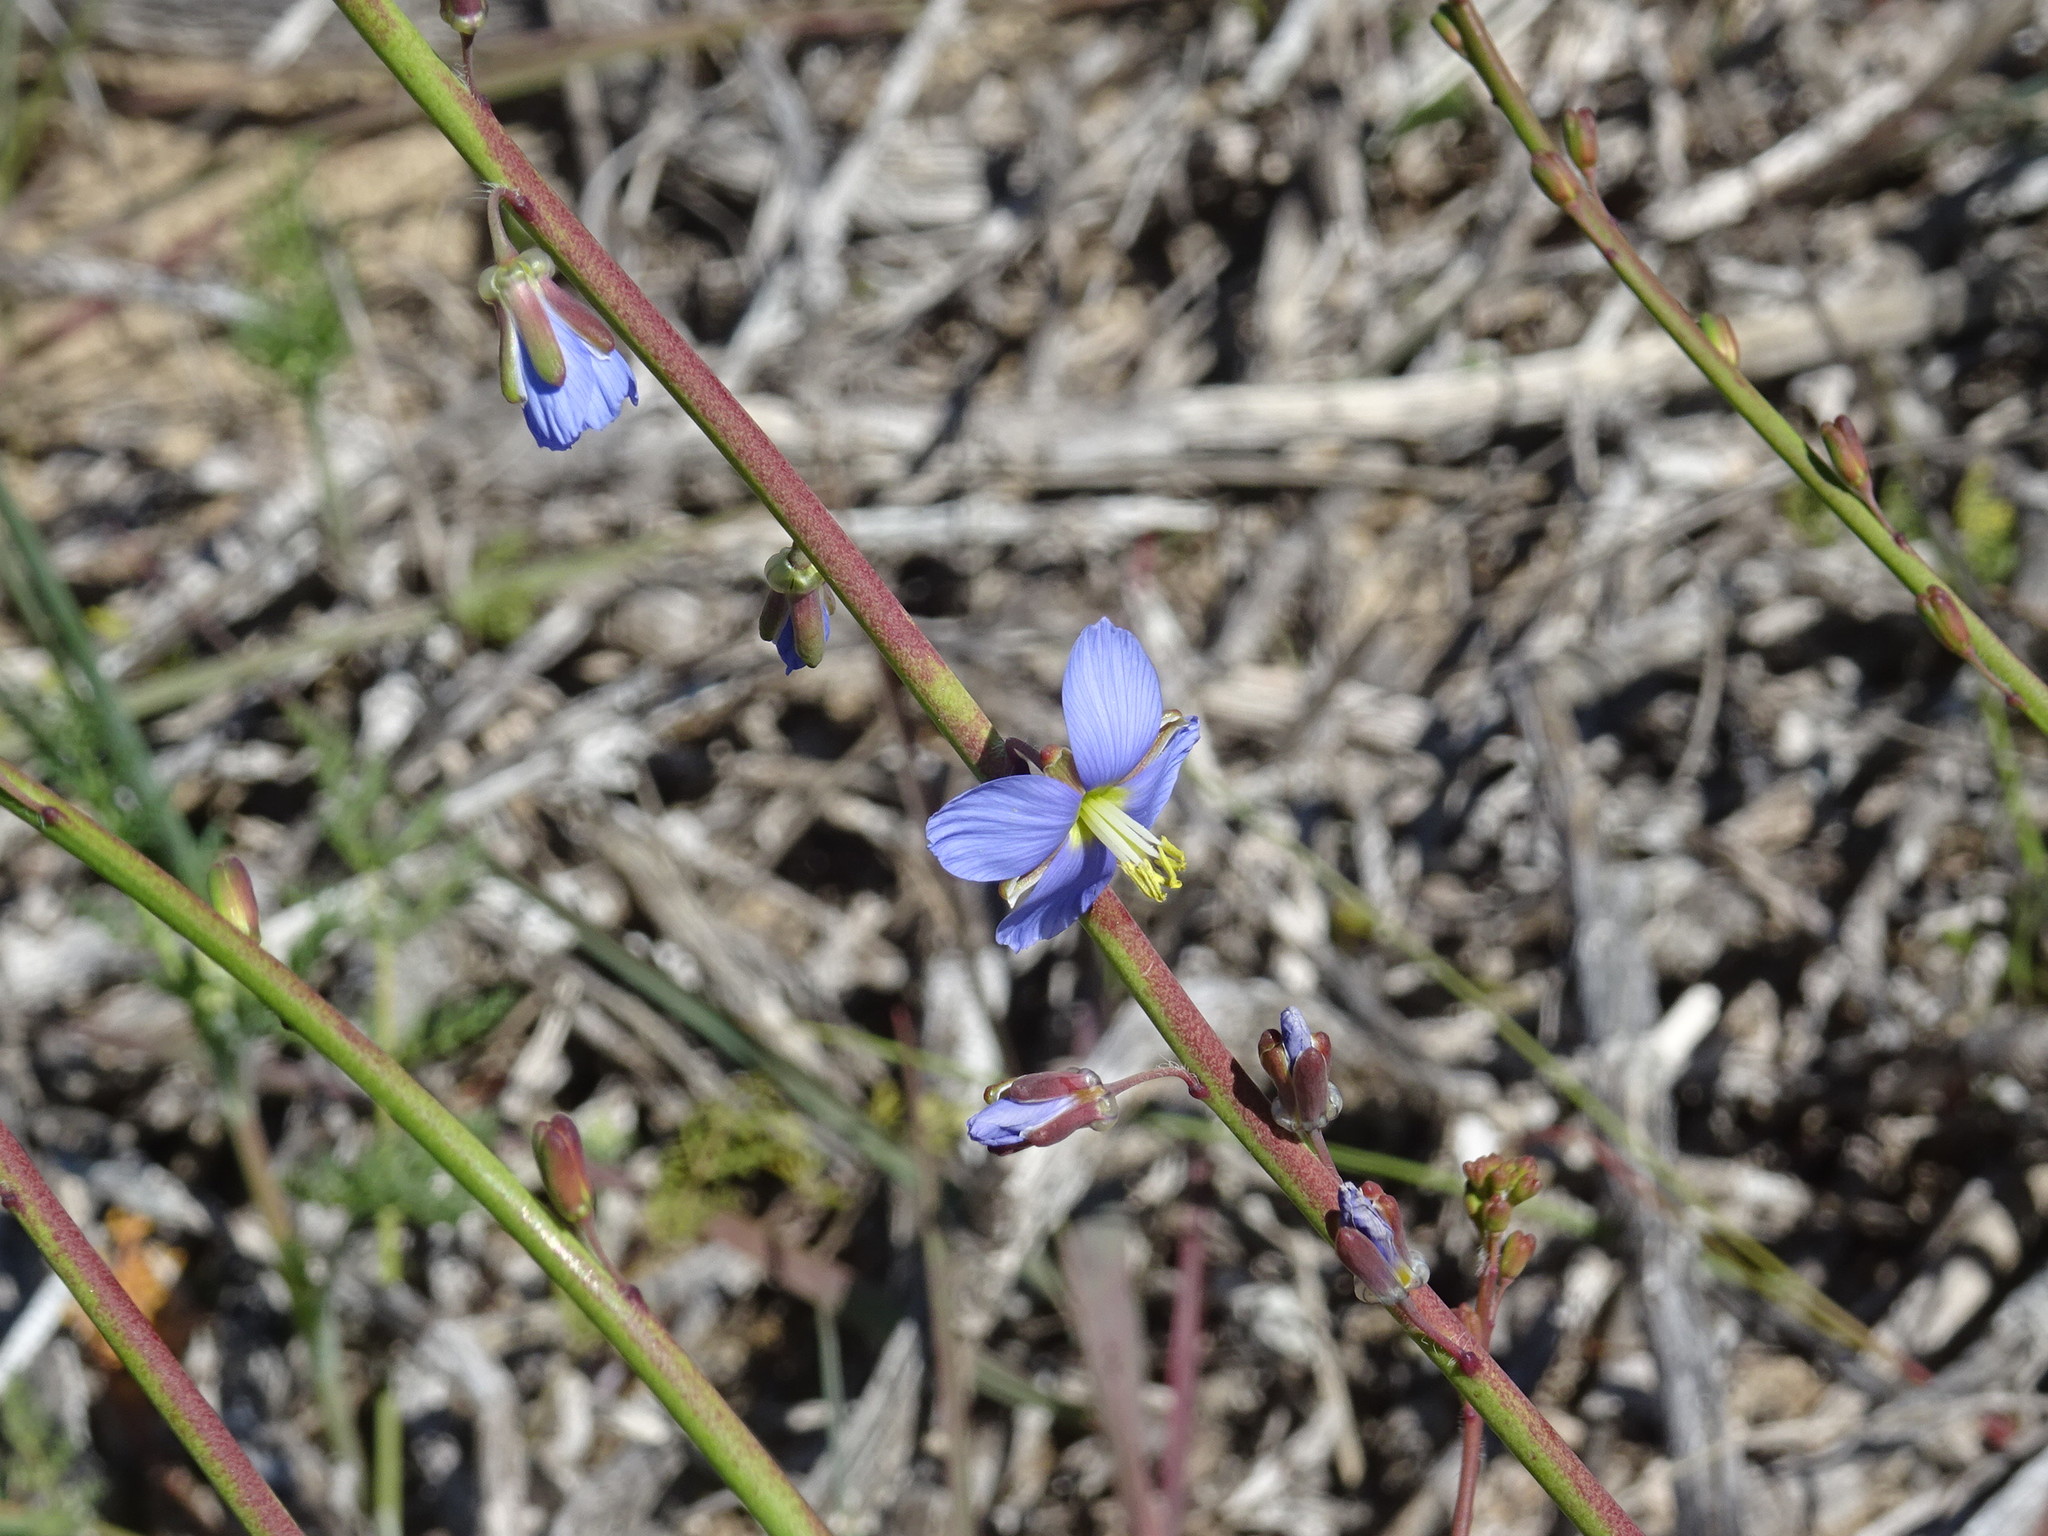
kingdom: Plantae
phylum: Tracheophyta
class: Magnoliopsida
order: Brassicales
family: Brassicaceae
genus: Heliophila
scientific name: Heliophila linearis
